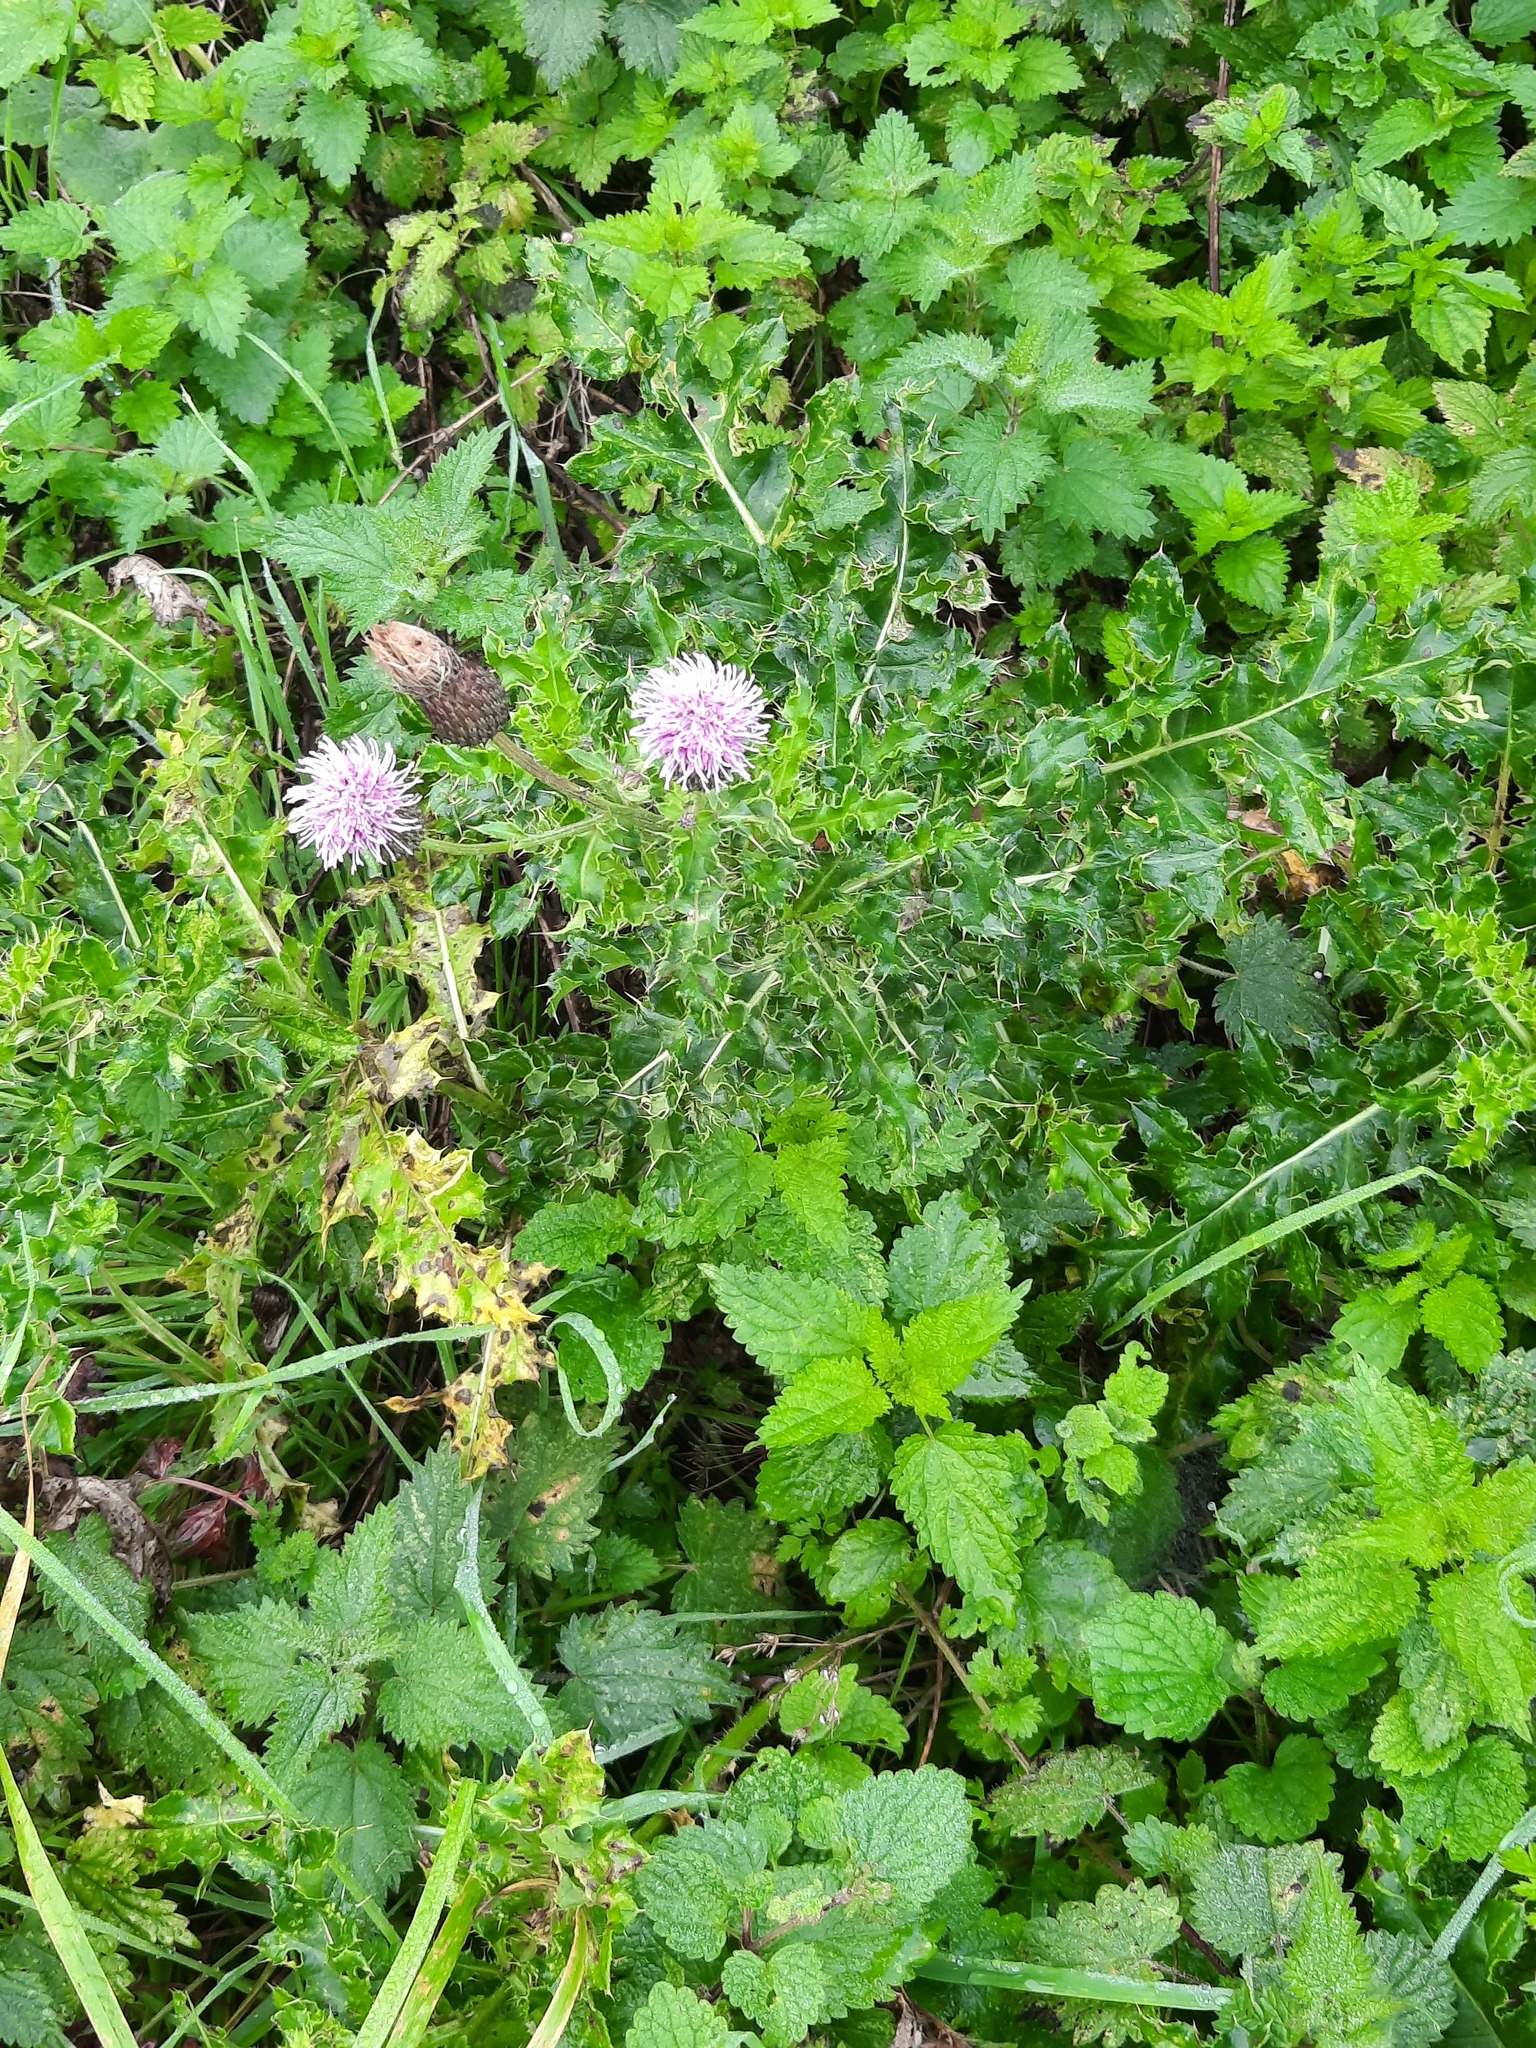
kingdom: Plantae
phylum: Tracheophyta
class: Magnoliopsida
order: Asterales
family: Asteraceae
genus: Cirsium
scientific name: Cirsium arvense
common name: Creeping thistle
